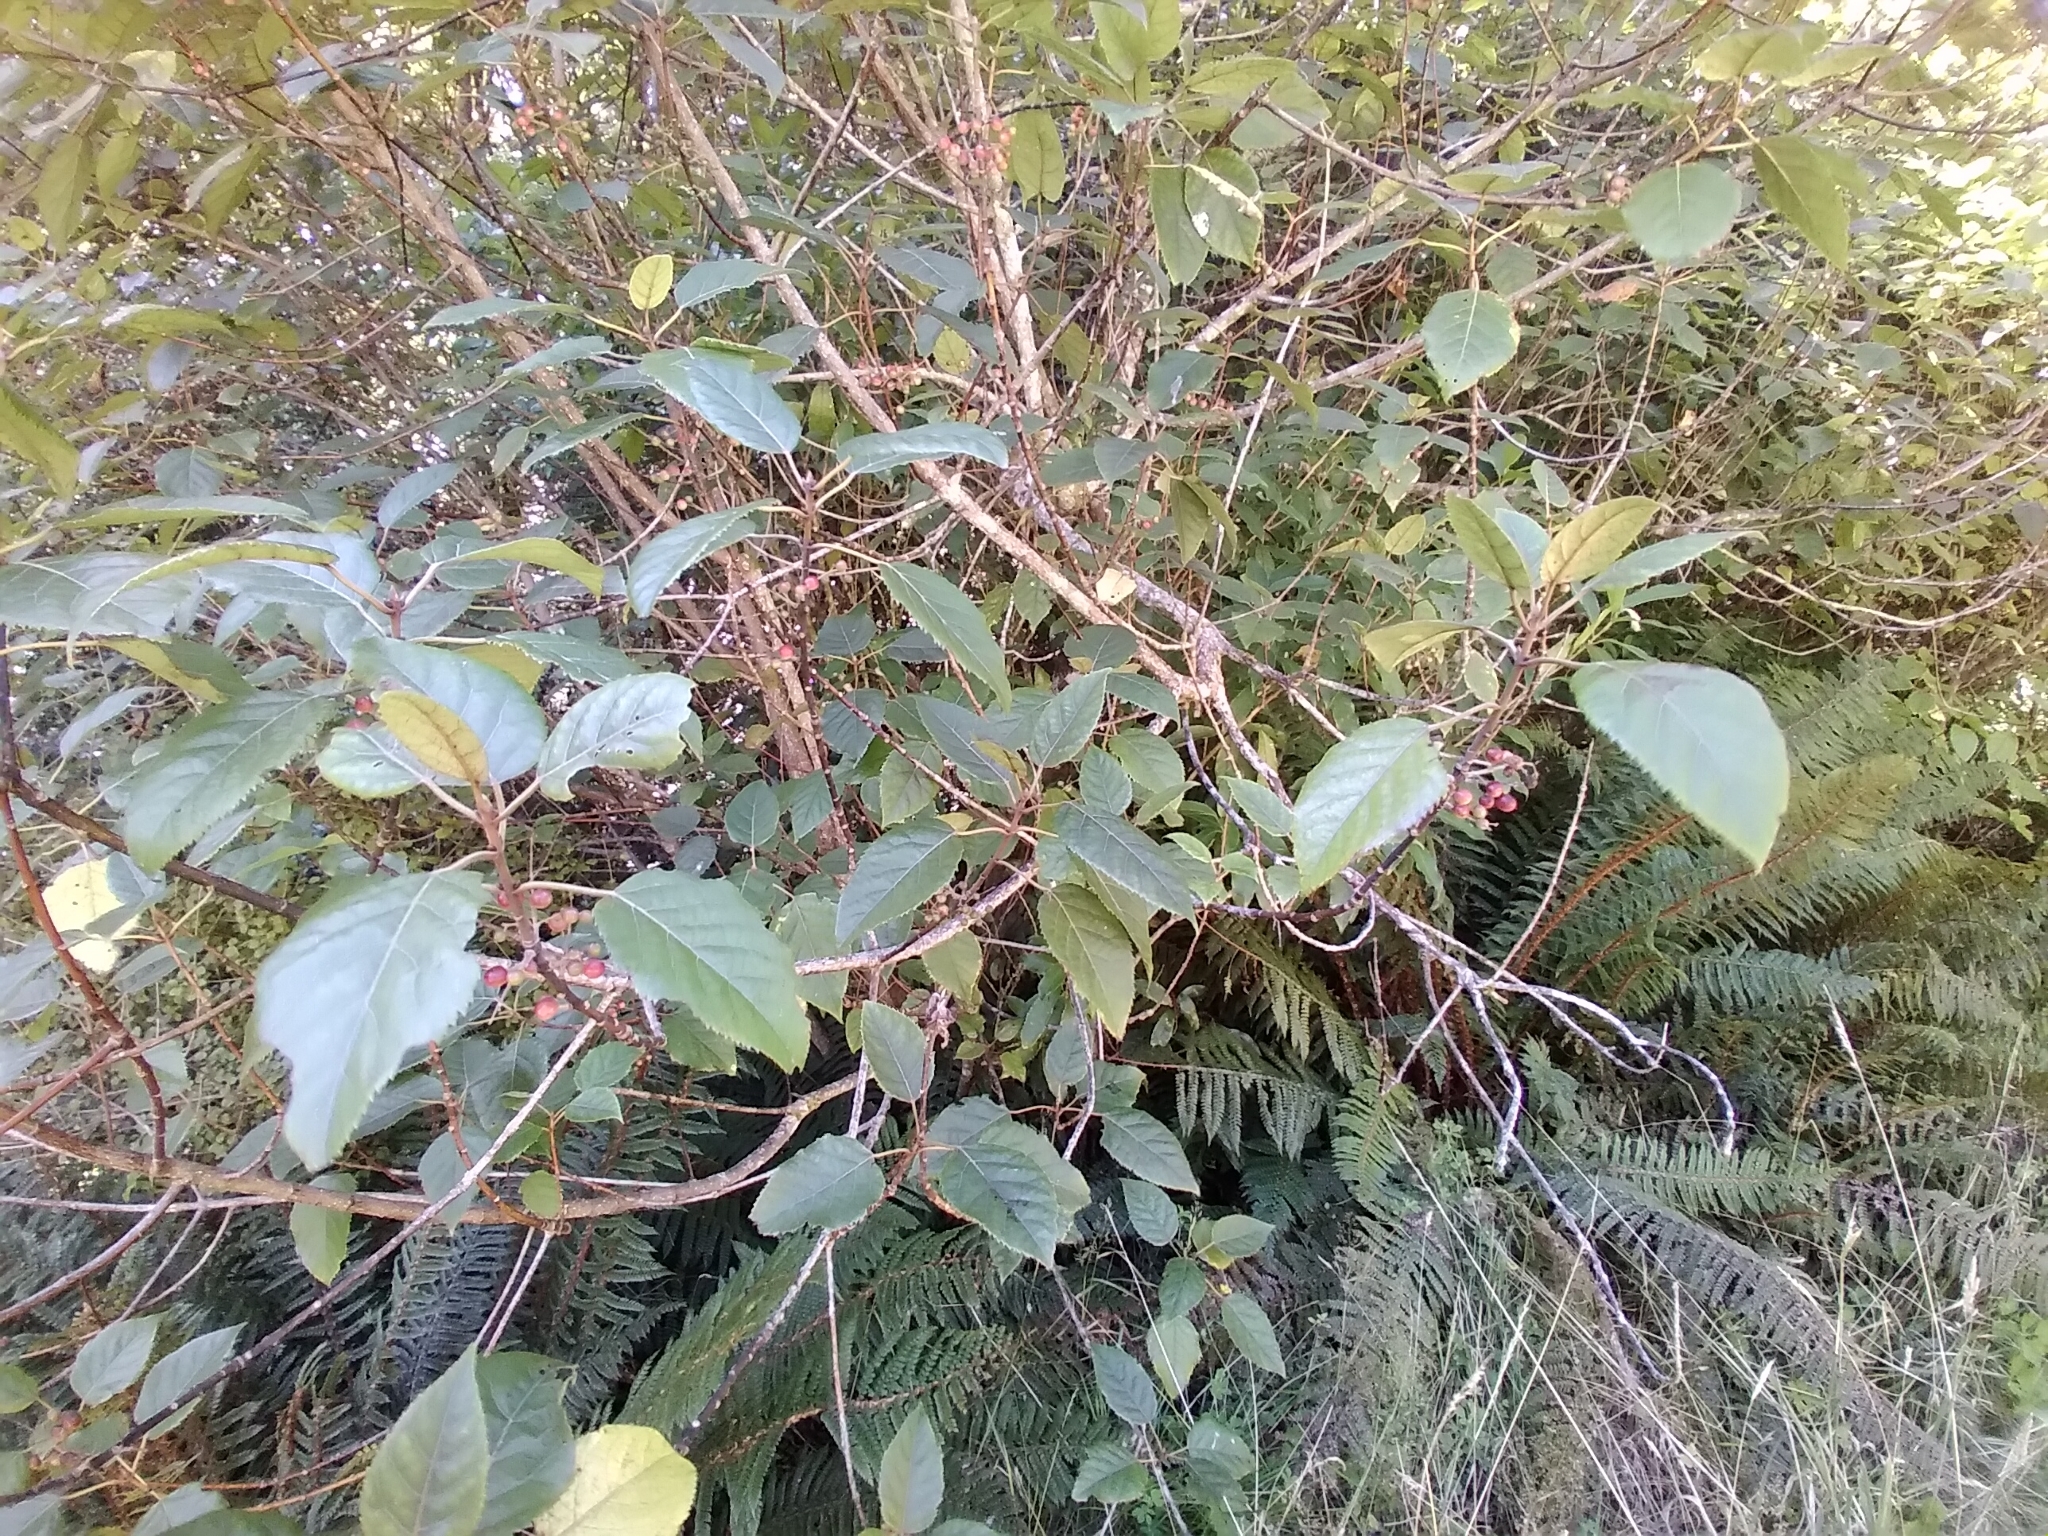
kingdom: Plantae
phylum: Tracheophyta
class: Magnoliopsida
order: Oxalidales
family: Elaeocarpaceae
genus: Aristotelia
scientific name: Aristotelia serrata
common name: New zealand wineberry
